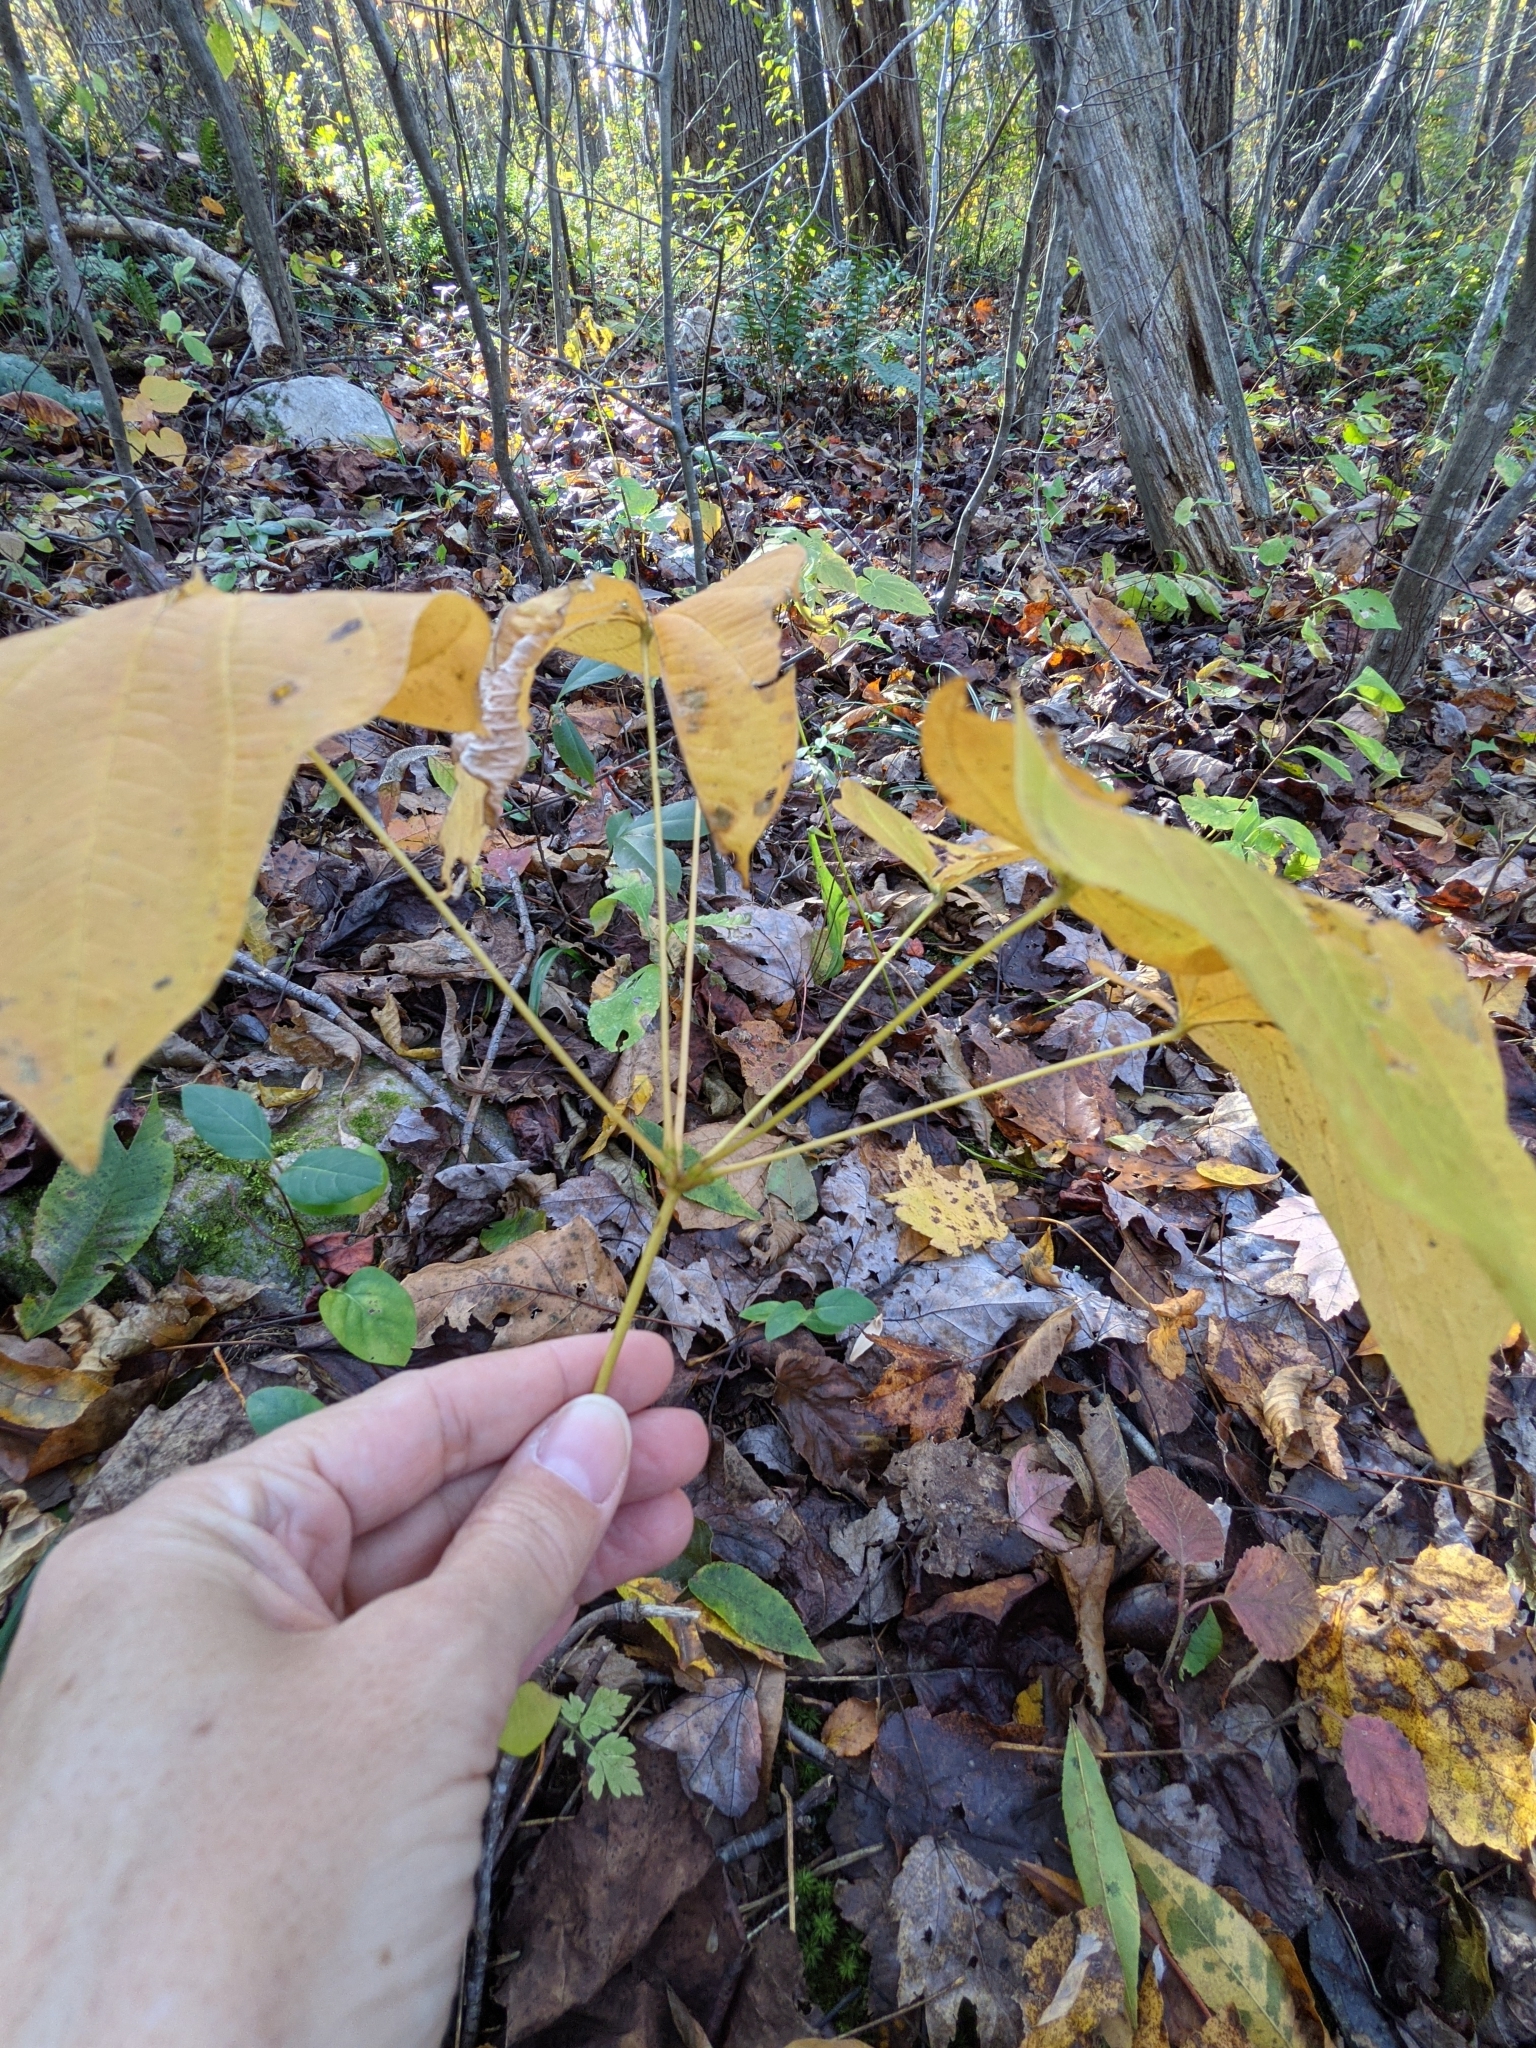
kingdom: Plantae
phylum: Tracheophyta
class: Liliopsida
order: Dioscoreales
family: Dioscoreaceae
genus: Dioscorea
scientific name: Dioscorea villosa
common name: Wild yam
